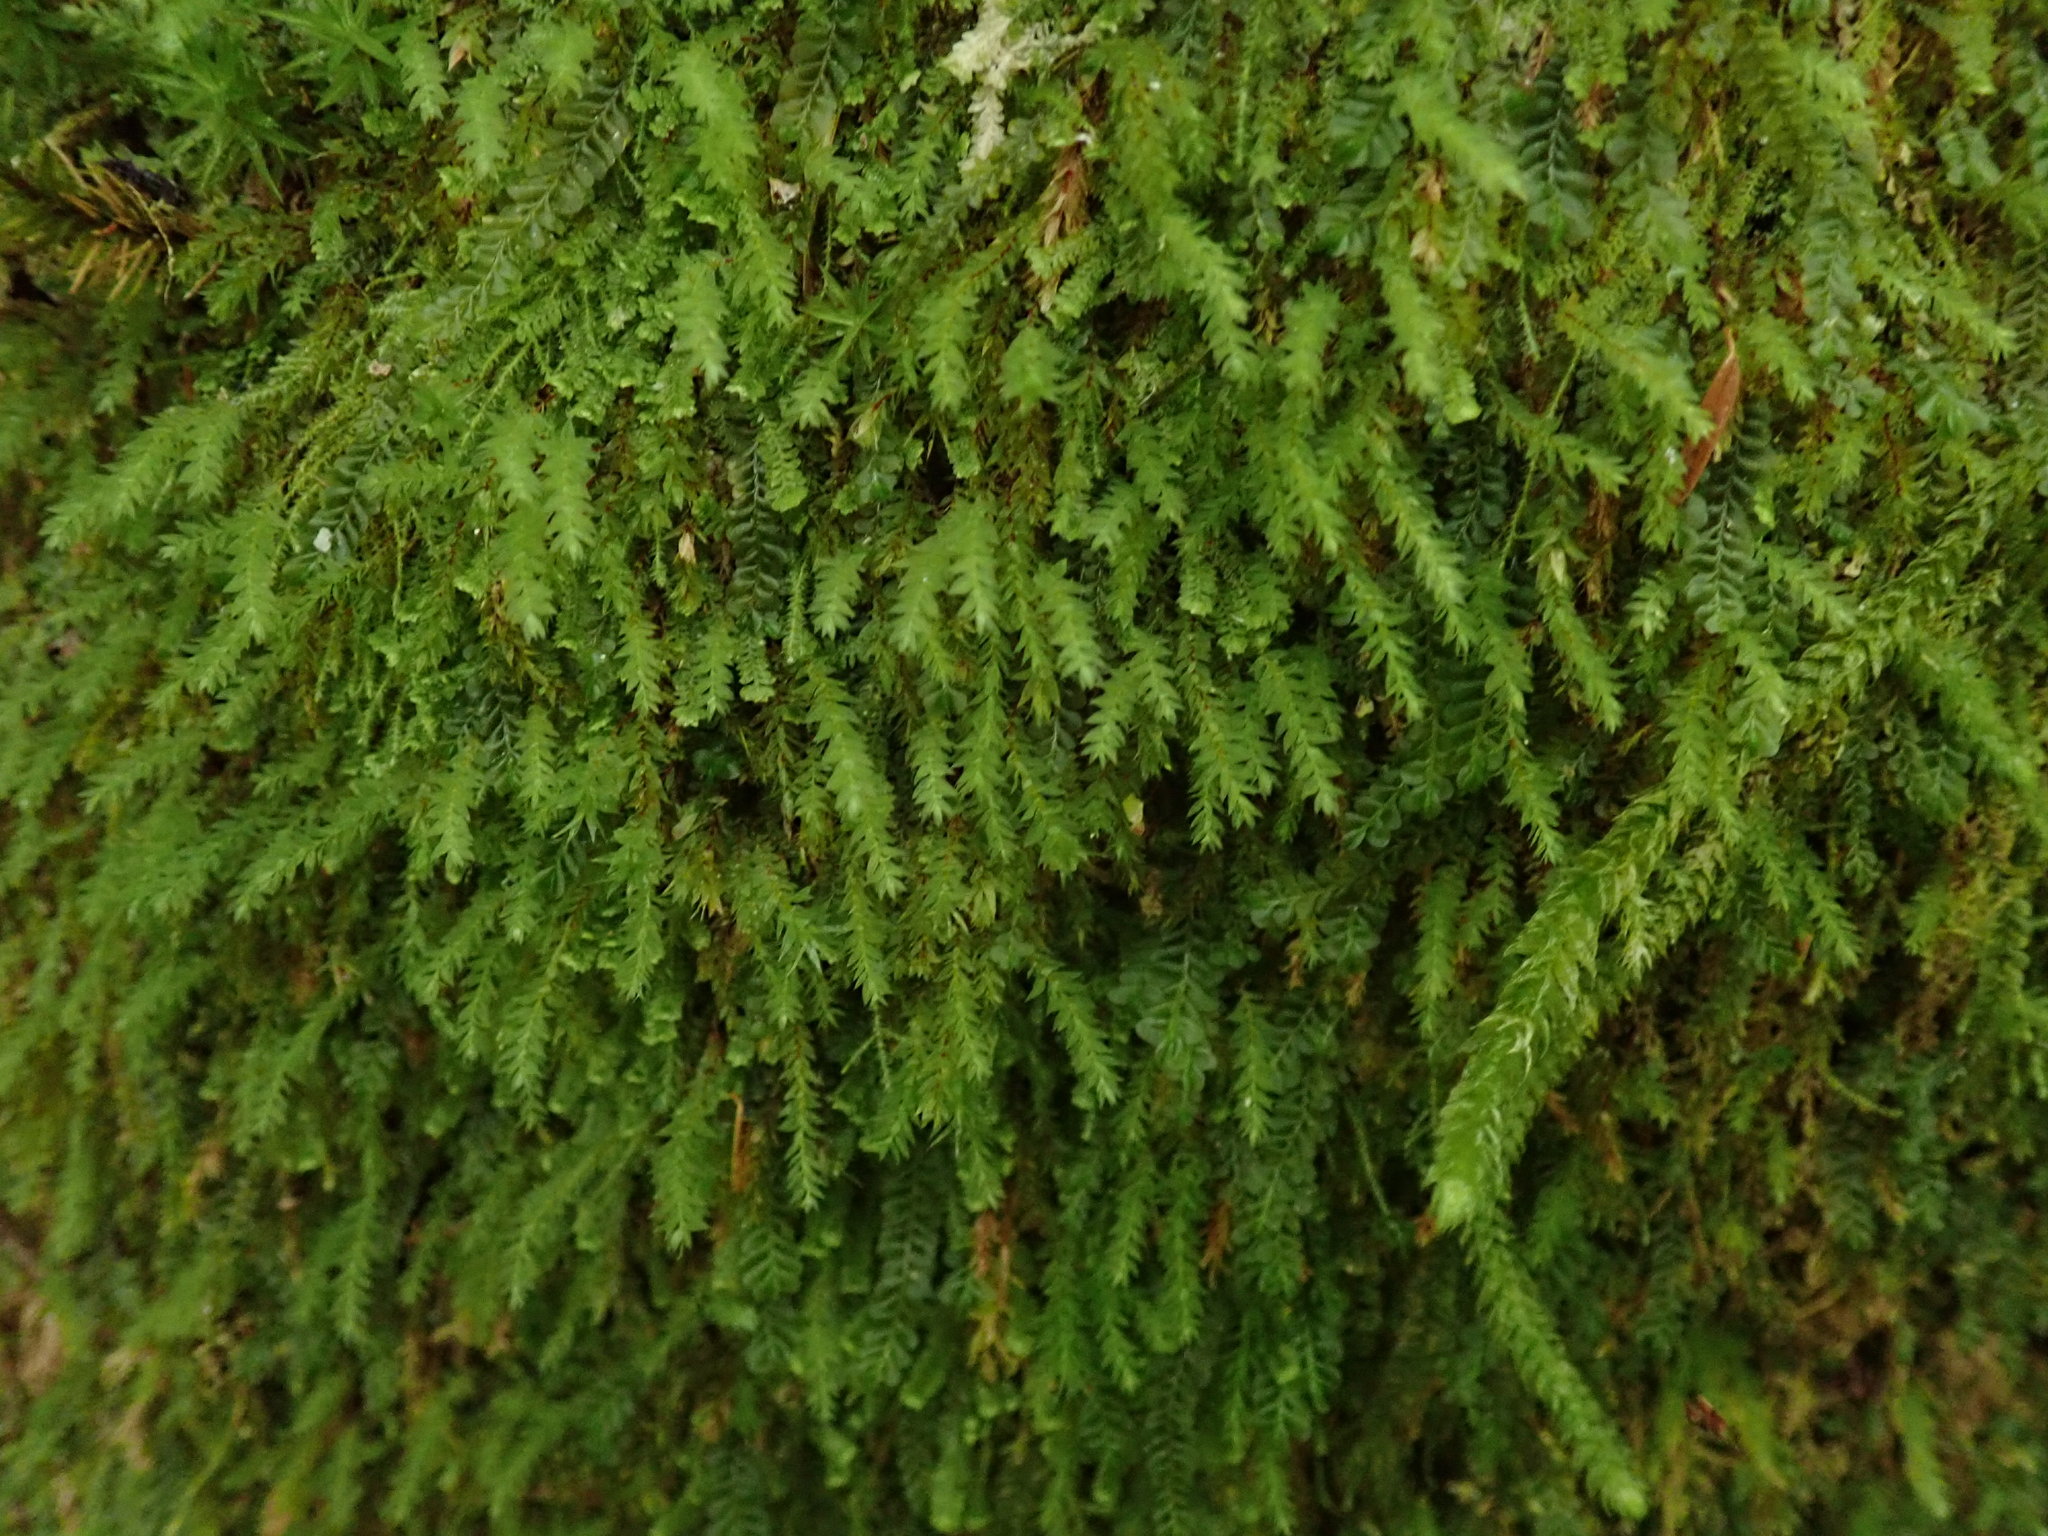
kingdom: Plantae
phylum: Bryophyta
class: Bryopsida
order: Bryales
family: Mniaceae
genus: Pohlia
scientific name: Pohlia cruda
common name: Opal nodding moss
